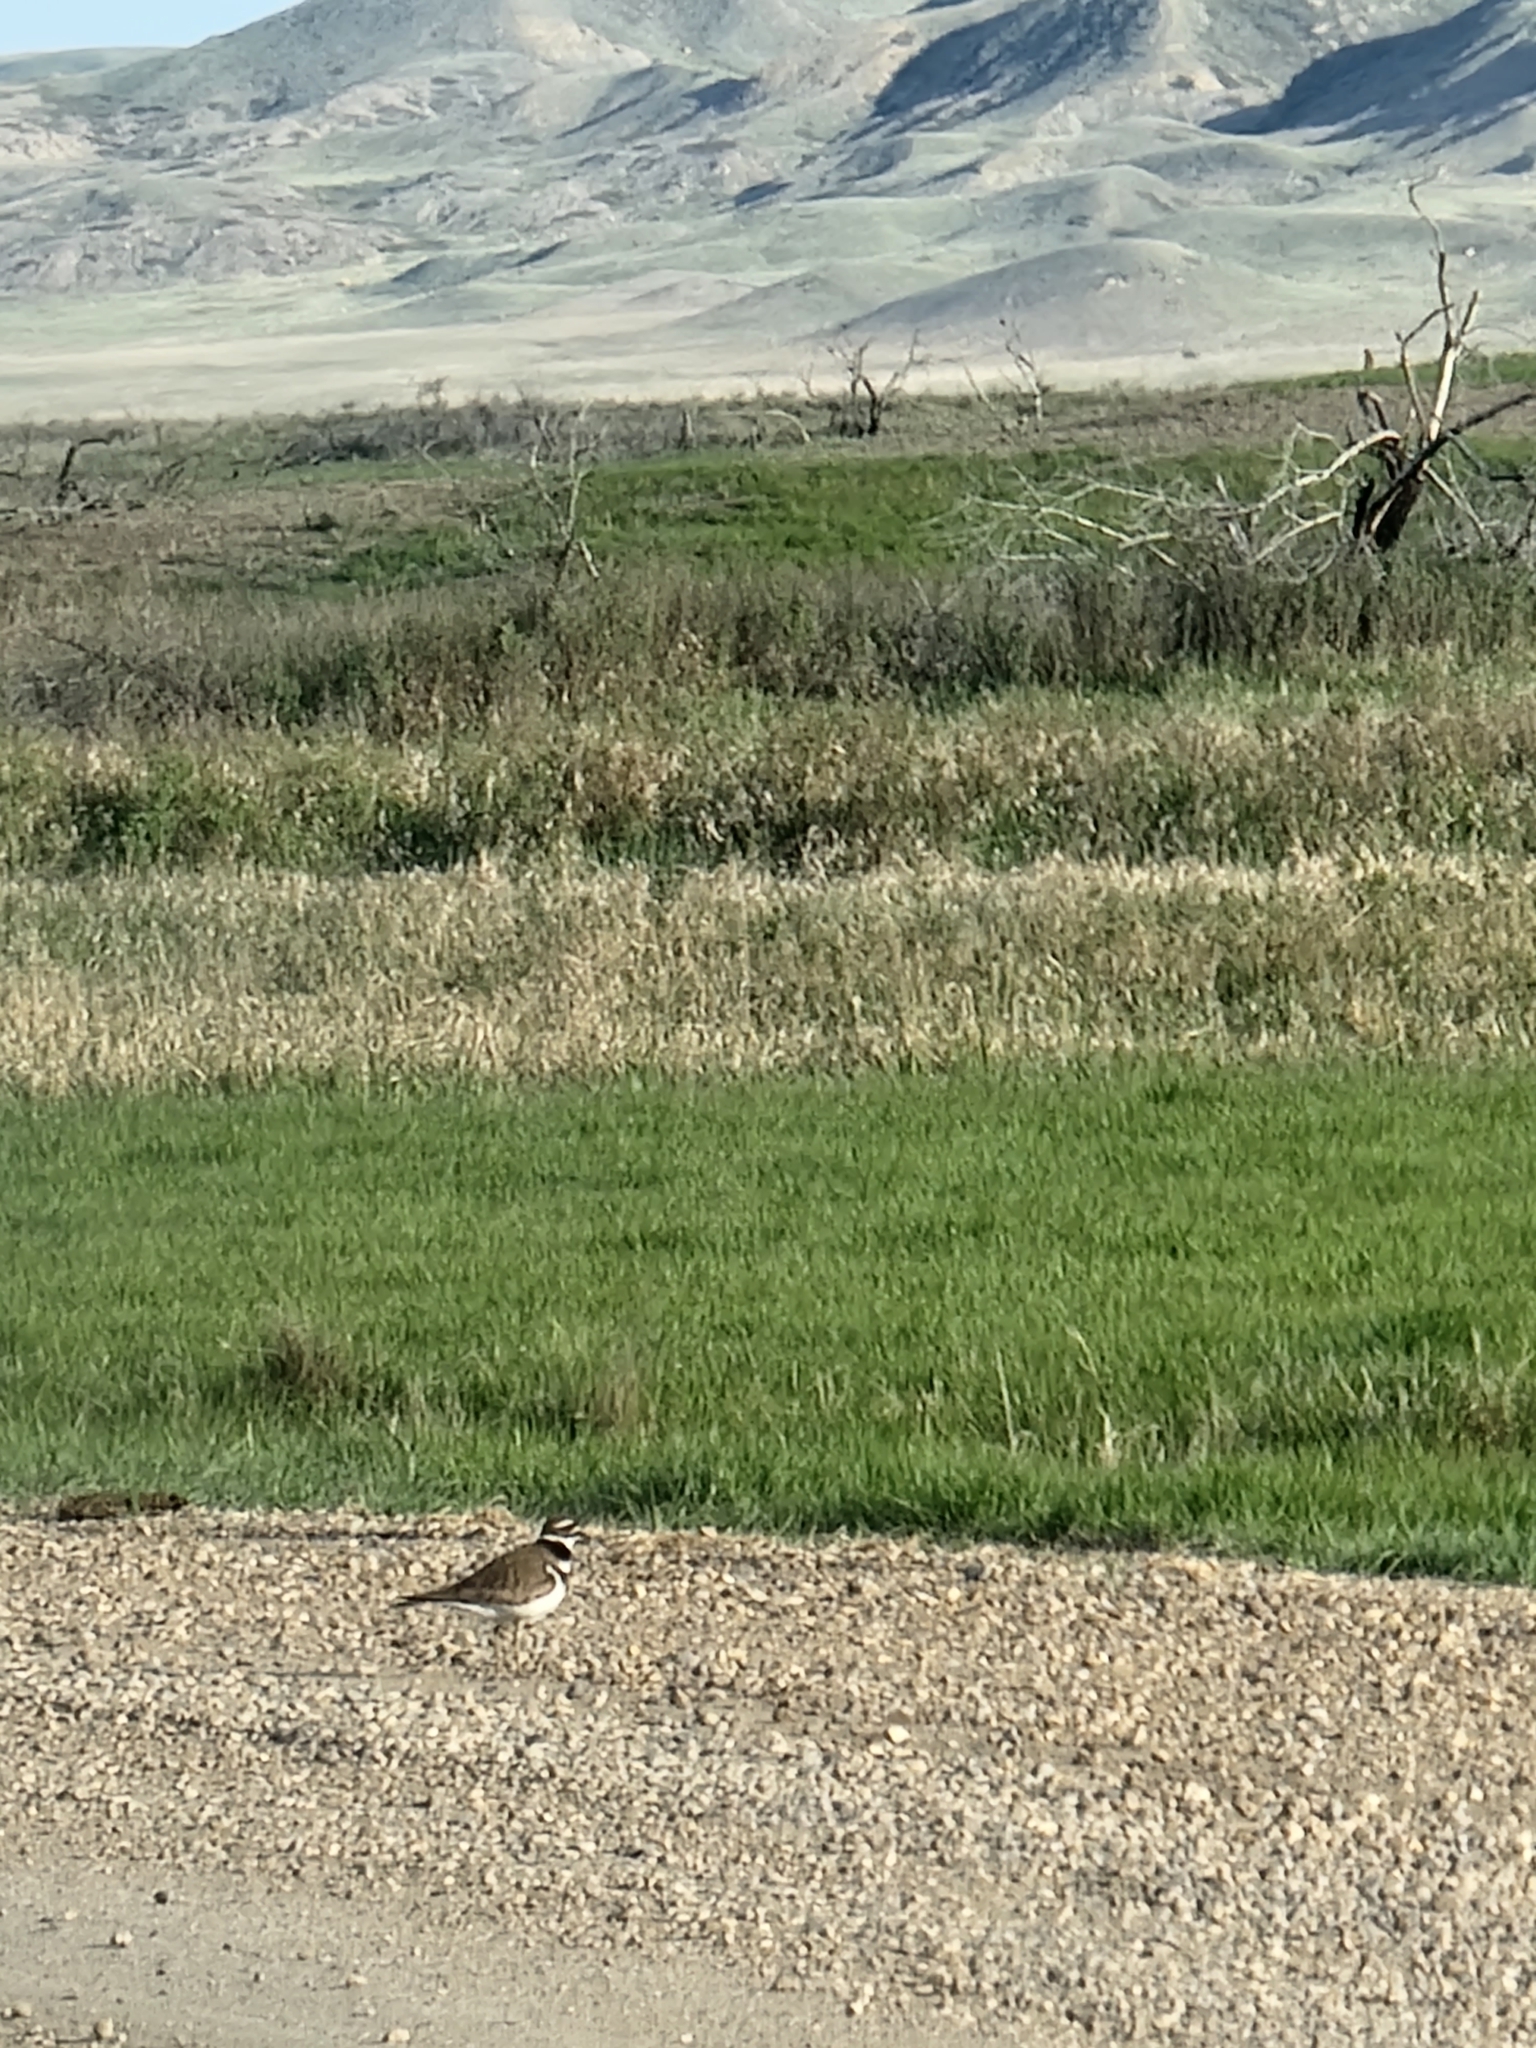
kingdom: Animalia
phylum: Chordata
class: Aves
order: Charadriiformes
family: Charadriidae
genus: Charadrius
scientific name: Charadrius vociferus
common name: Killdeer
